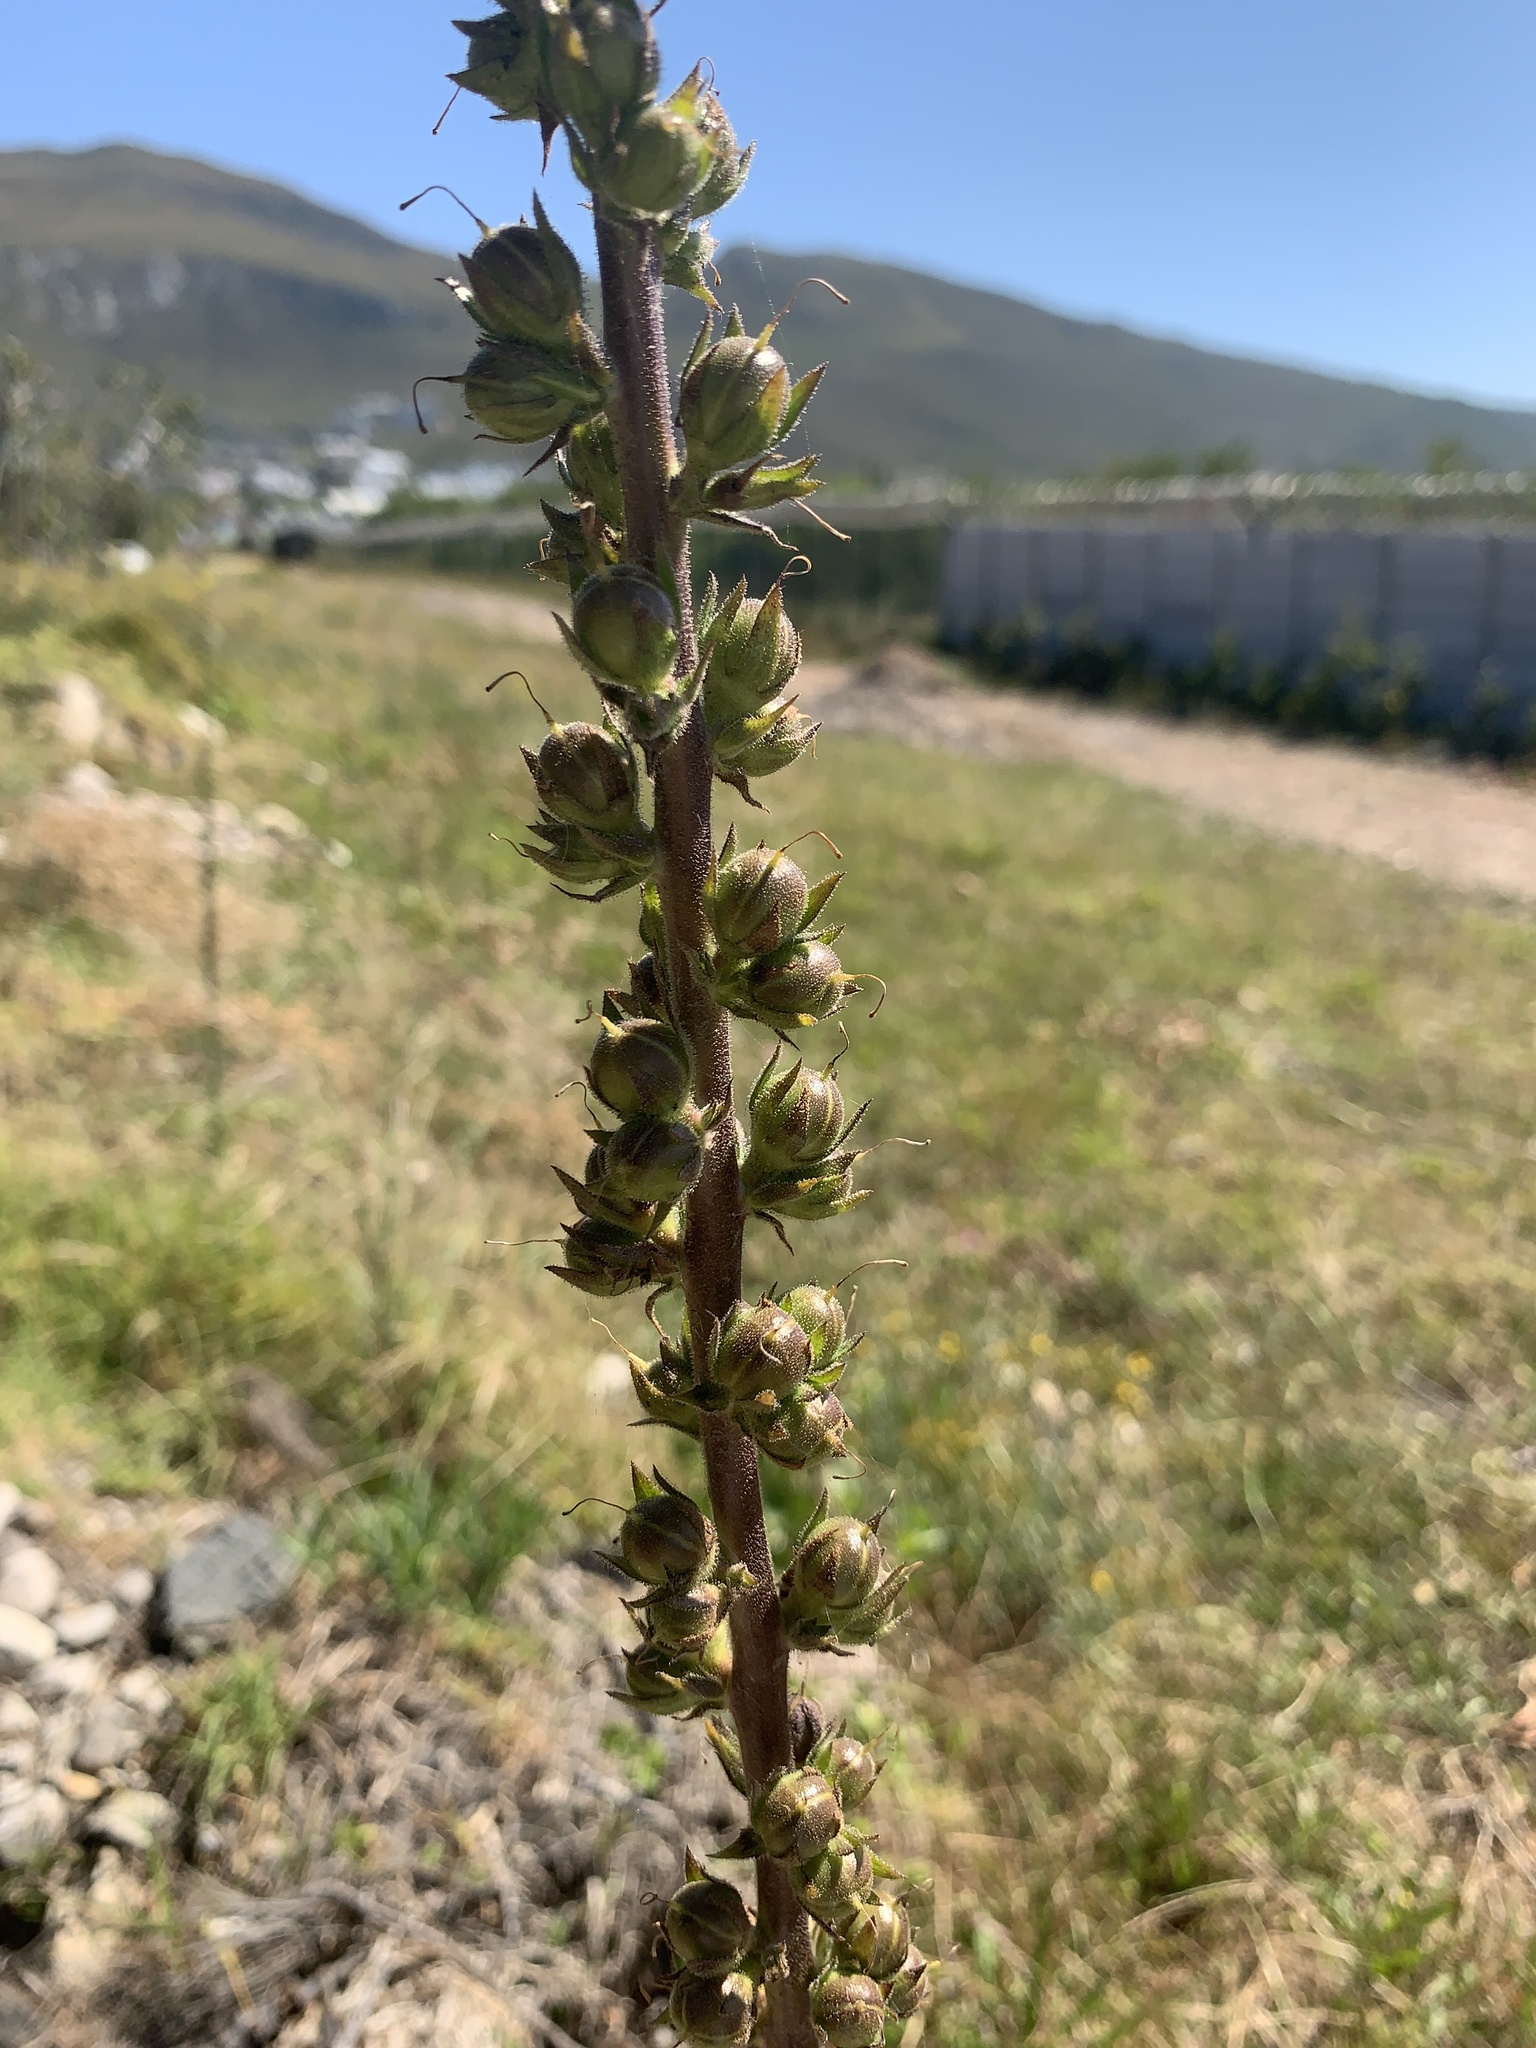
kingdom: Plantae
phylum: Tracheophyta
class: Magnoliopsida
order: Lamiales
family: Scrophulariaceae
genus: Verbascum
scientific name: Verbascum virgatum
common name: Twiggy mullein
